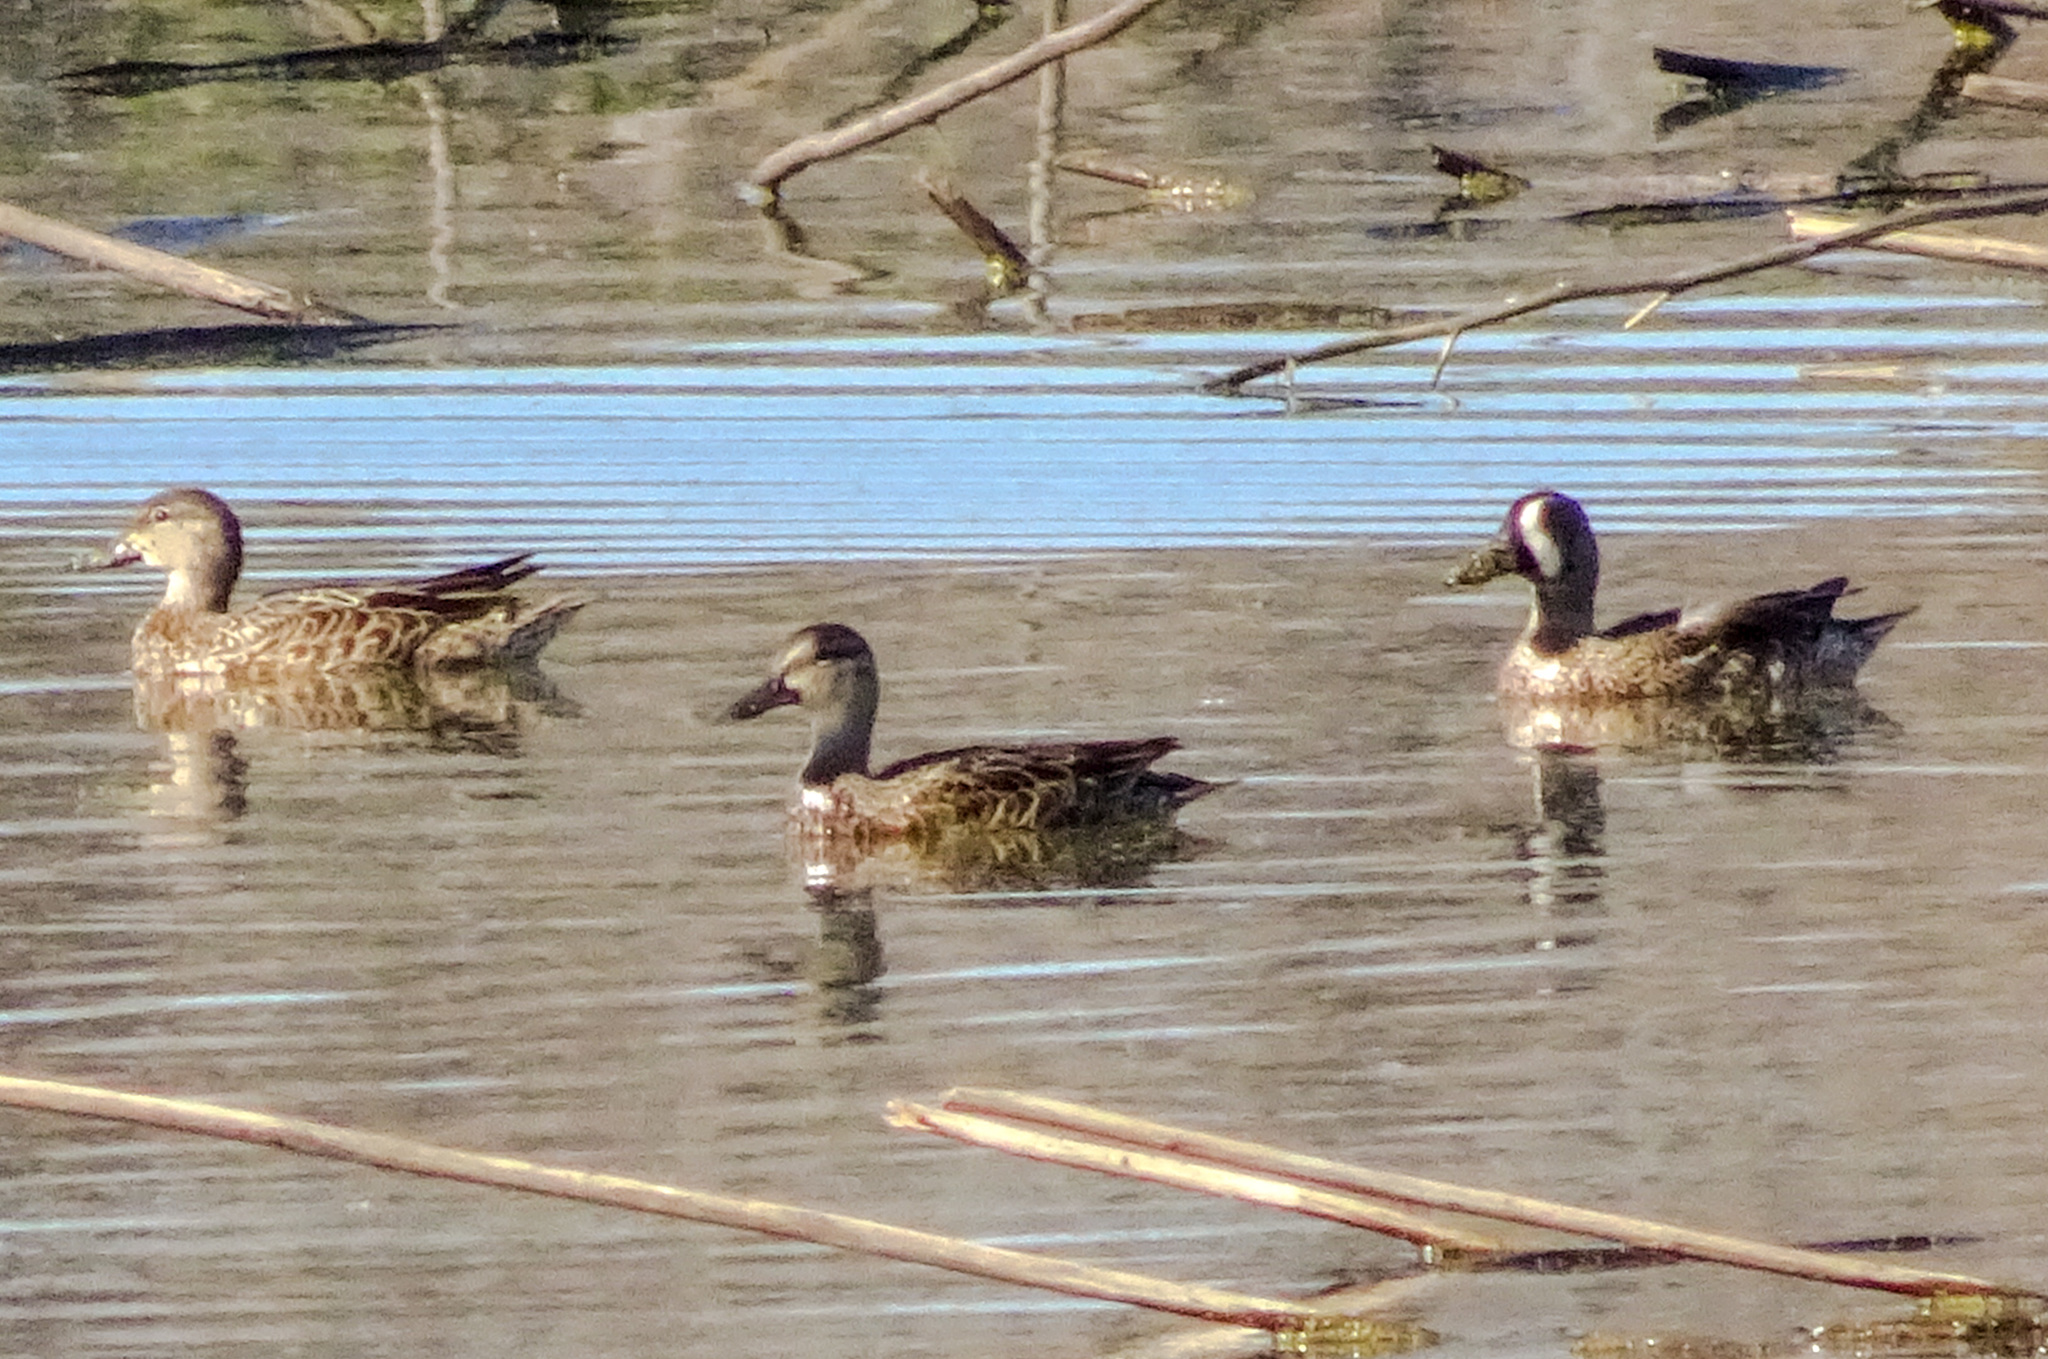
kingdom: Animalia
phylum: Chordata
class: Aves
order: Anseriformes
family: Anatidae
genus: Spatula
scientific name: Spatula discors
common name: Blue-winged teal
